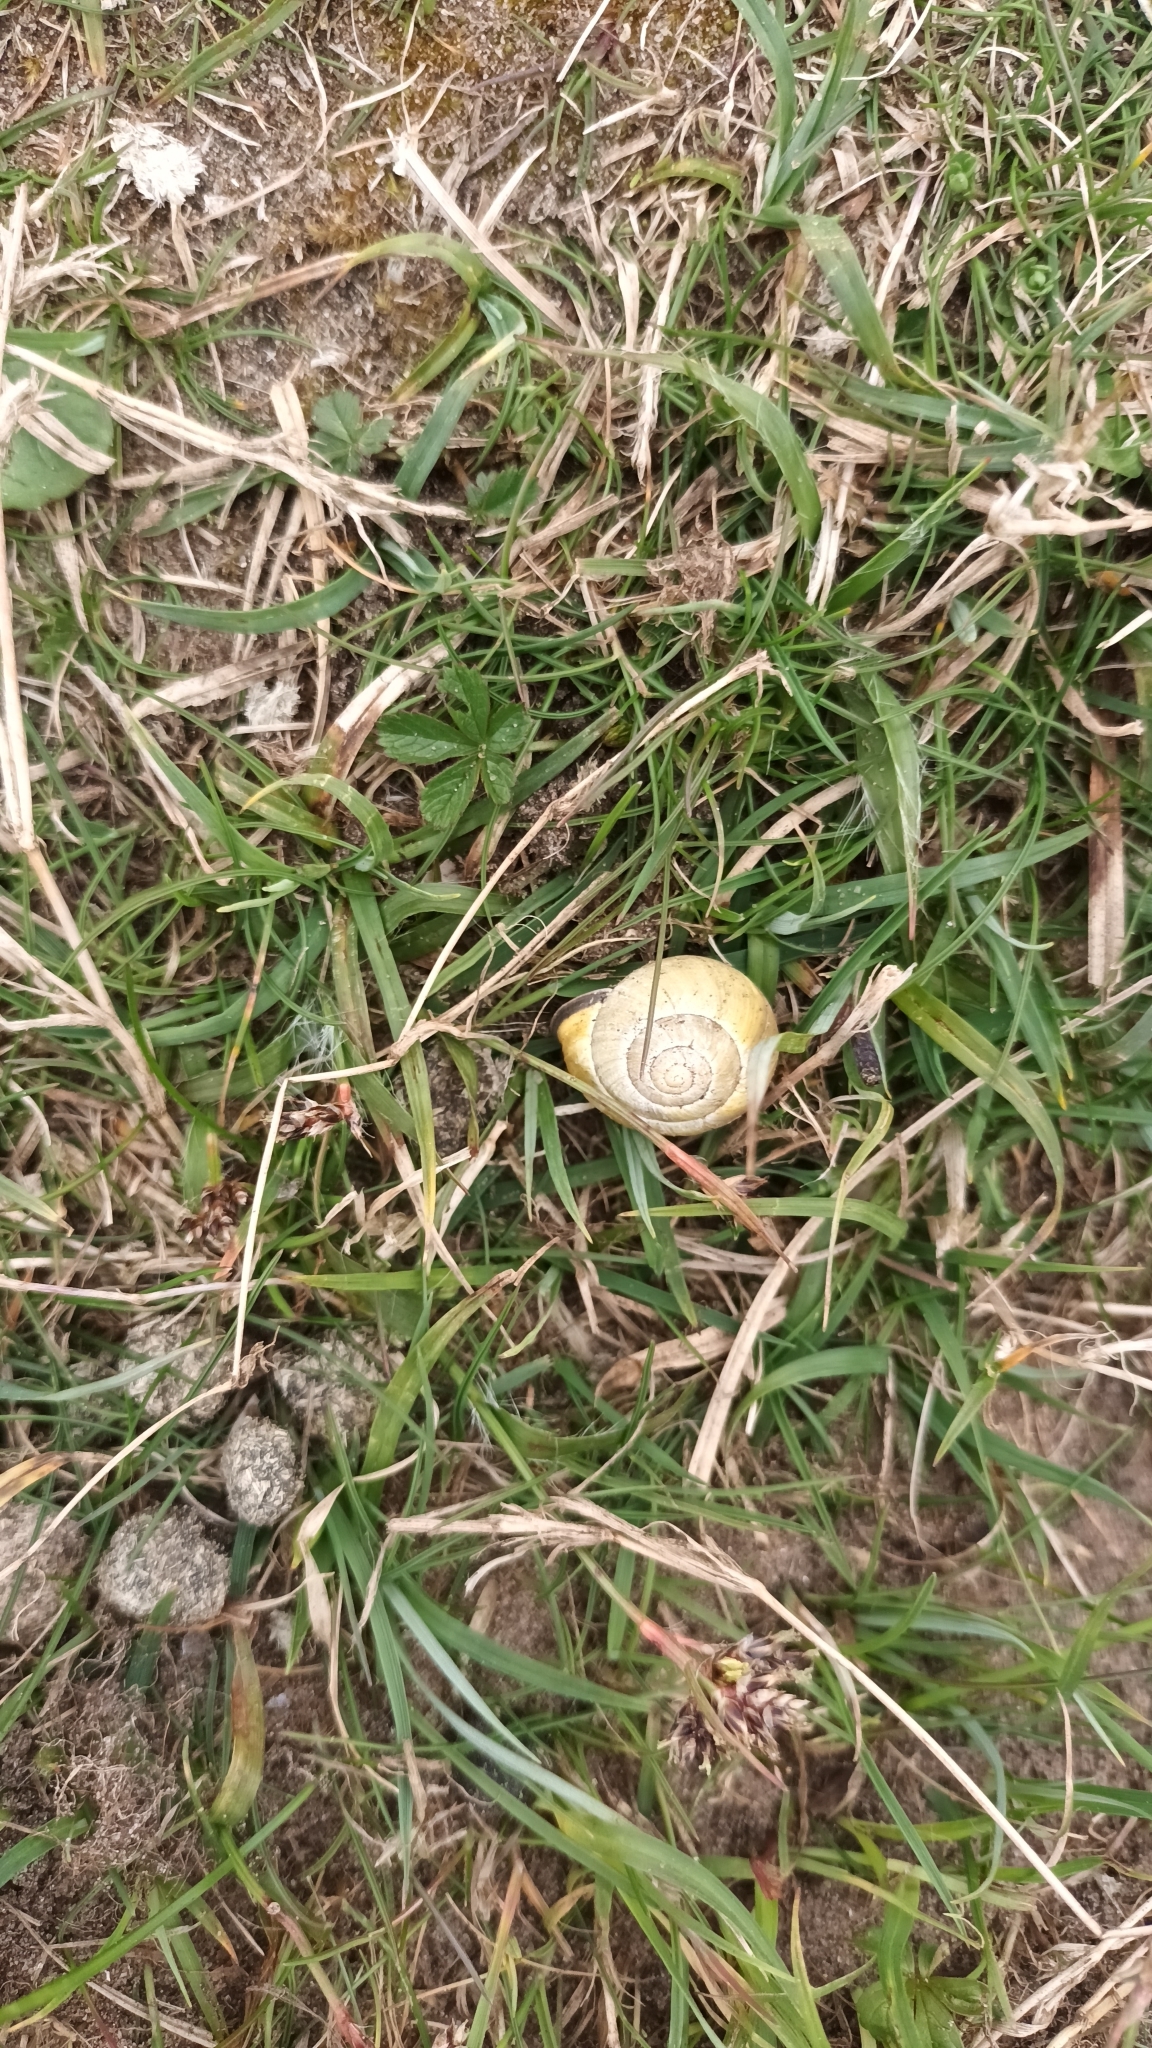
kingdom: Animalia
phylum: Mollusca
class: Gastropoda
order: Stylommatophora
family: Helicidae
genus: Cepaea
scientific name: Cepaea nemoralis
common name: Grovesnail
